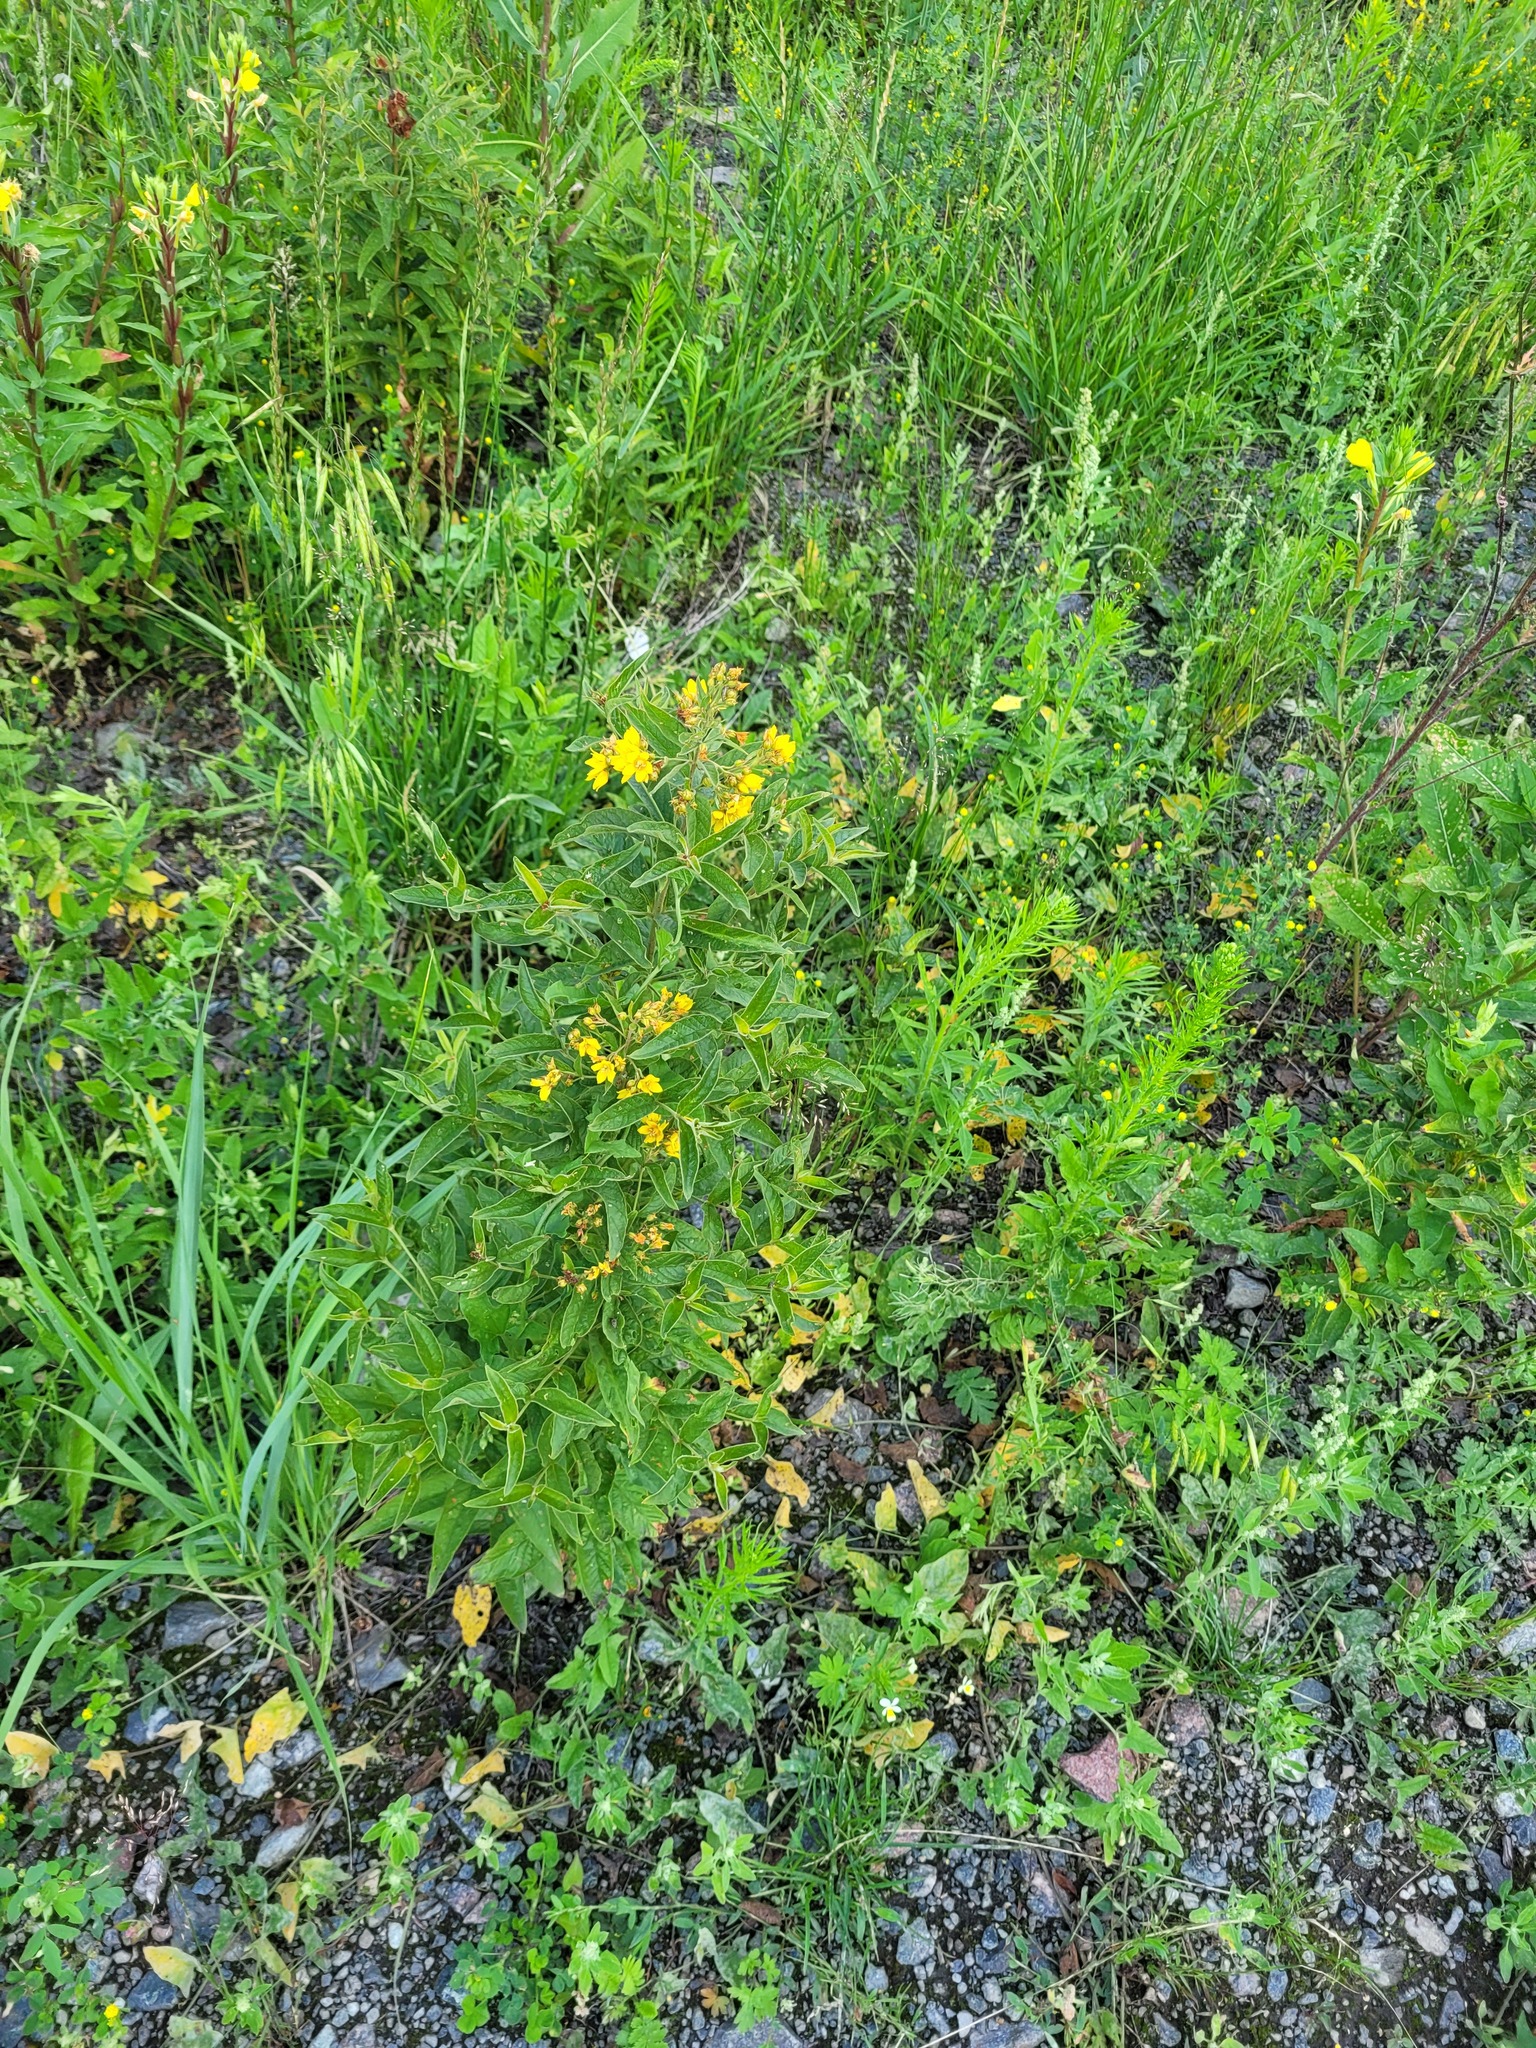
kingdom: Plantae
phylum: Tracheophyta
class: Magnoliopsida
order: Ericales
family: Primulaceae
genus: Lysimachia
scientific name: Lysimachia vulgaris
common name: Yellow loosestrife
